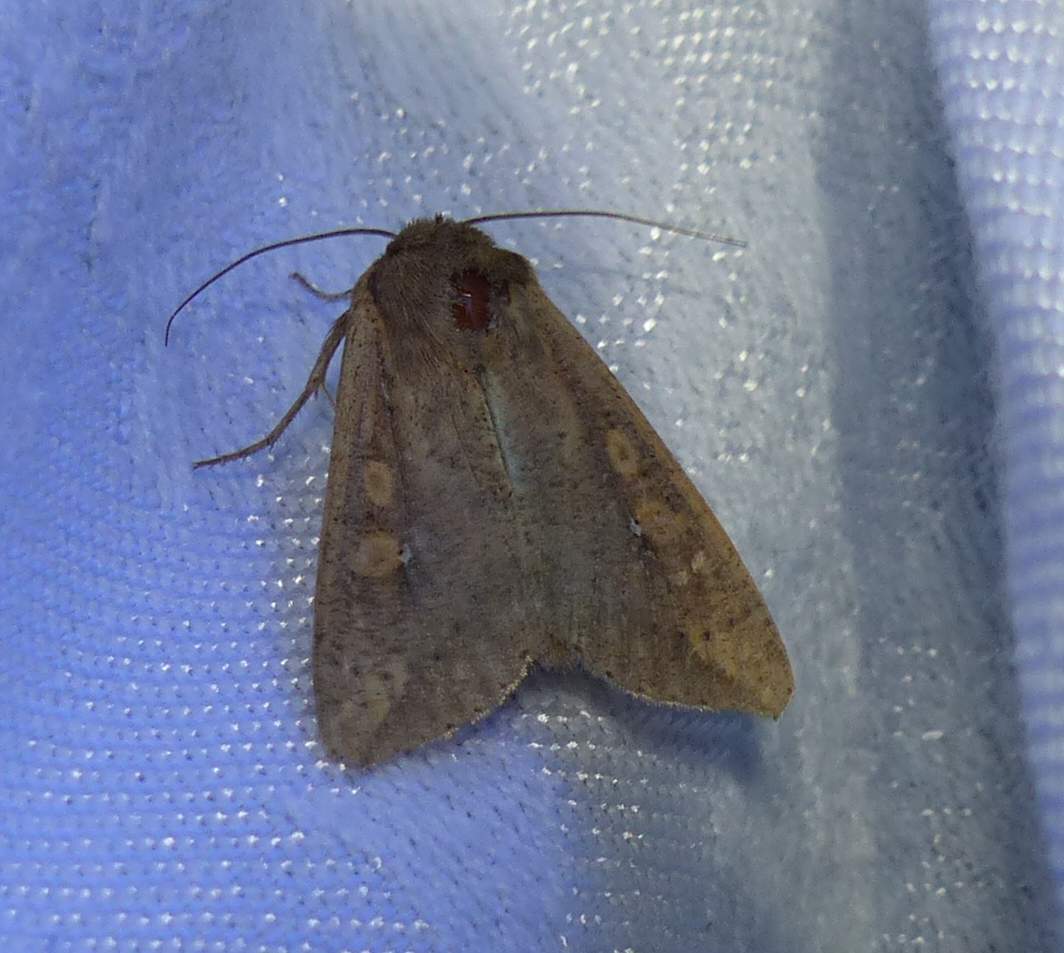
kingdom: Animalia
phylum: Arthropoda
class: Insecta
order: Lepidoptera
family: Noctuidae
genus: Mythimna
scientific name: Mythimna unipuncta
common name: White-speck
